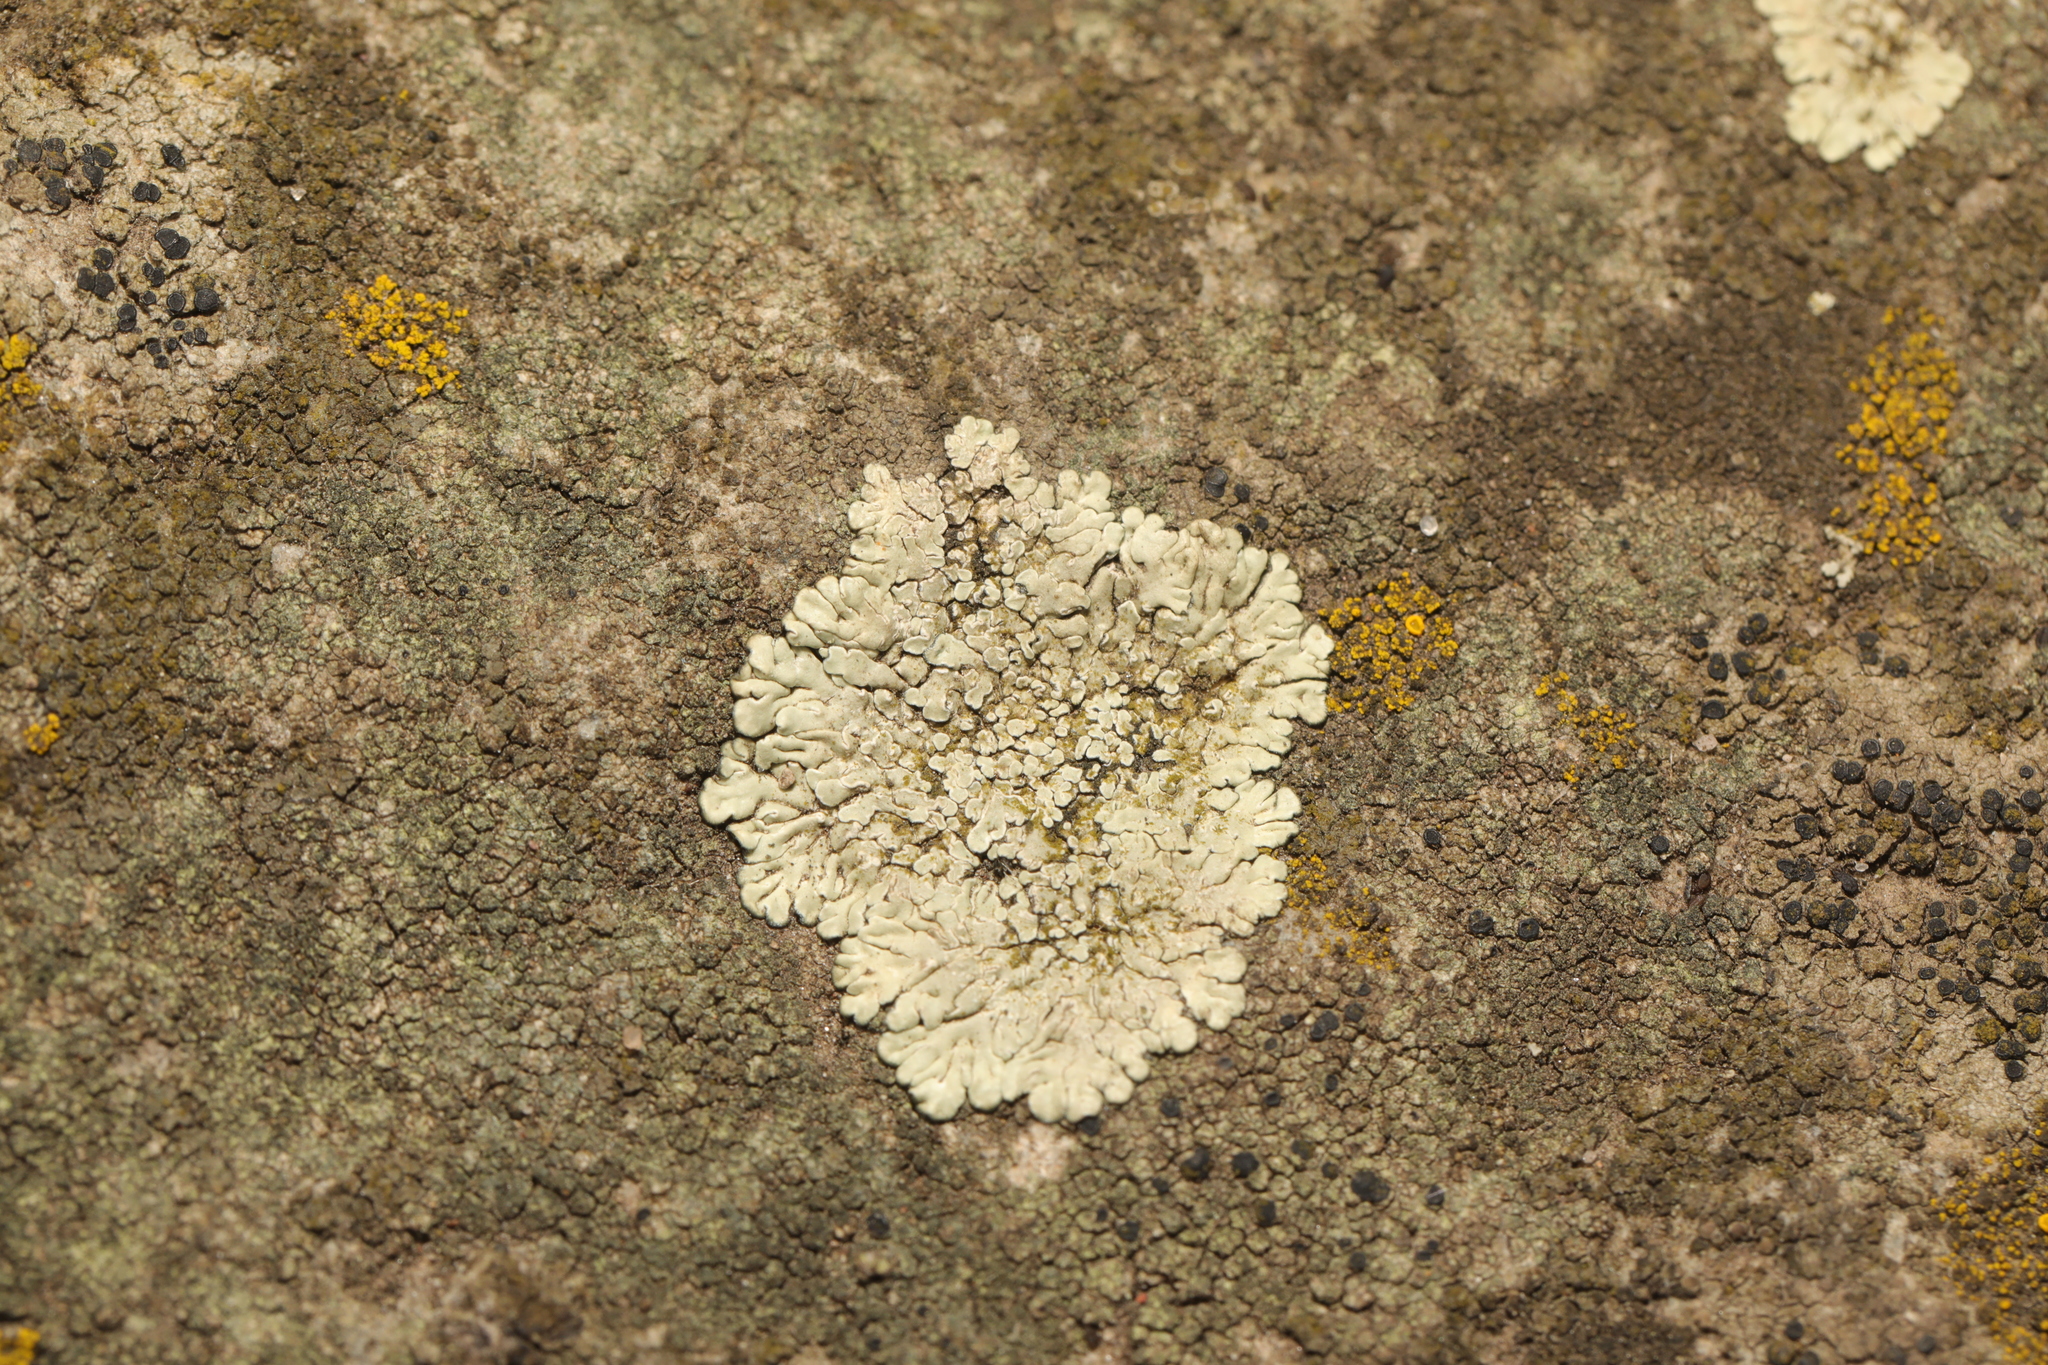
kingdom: Fungi
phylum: Ascomycota
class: Lecanoromycetes
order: Lecanorales
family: Lecanoraceae
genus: Protoparmeliopsis
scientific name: Protoparmeliopsis muralis
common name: Stonewall rim lichen
